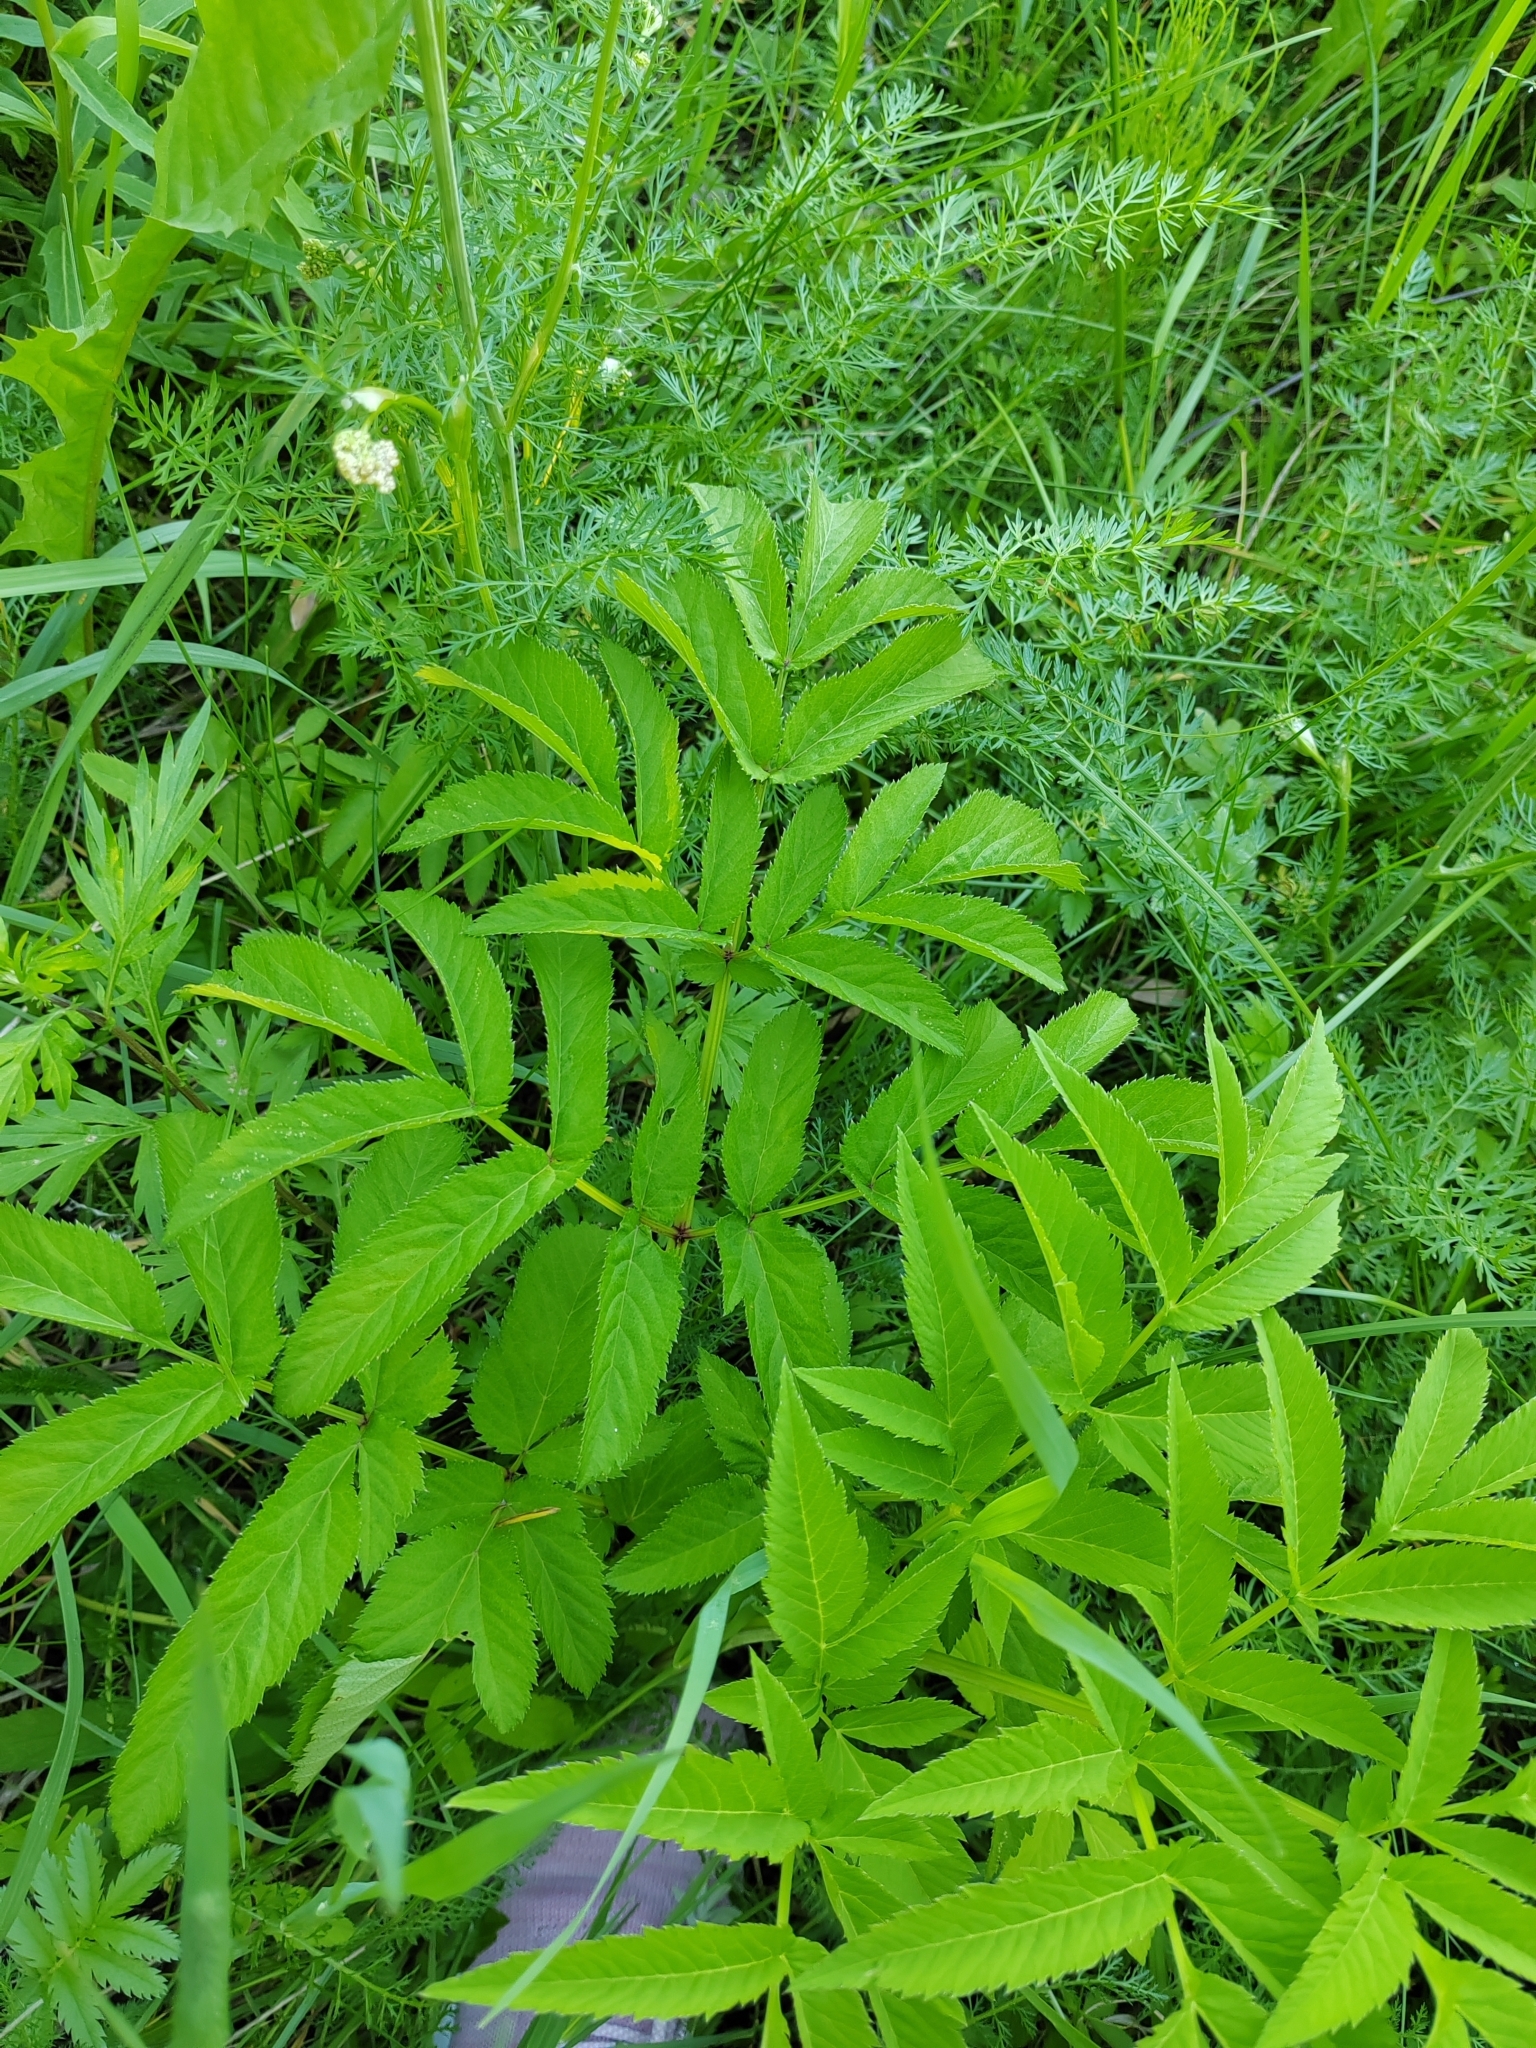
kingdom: Plantae
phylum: Tracheophyta
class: Magnoliopsida
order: Apiales
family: Apiaceae
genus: Angelica
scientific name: Angelica sylvestris
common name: Wild angelica
